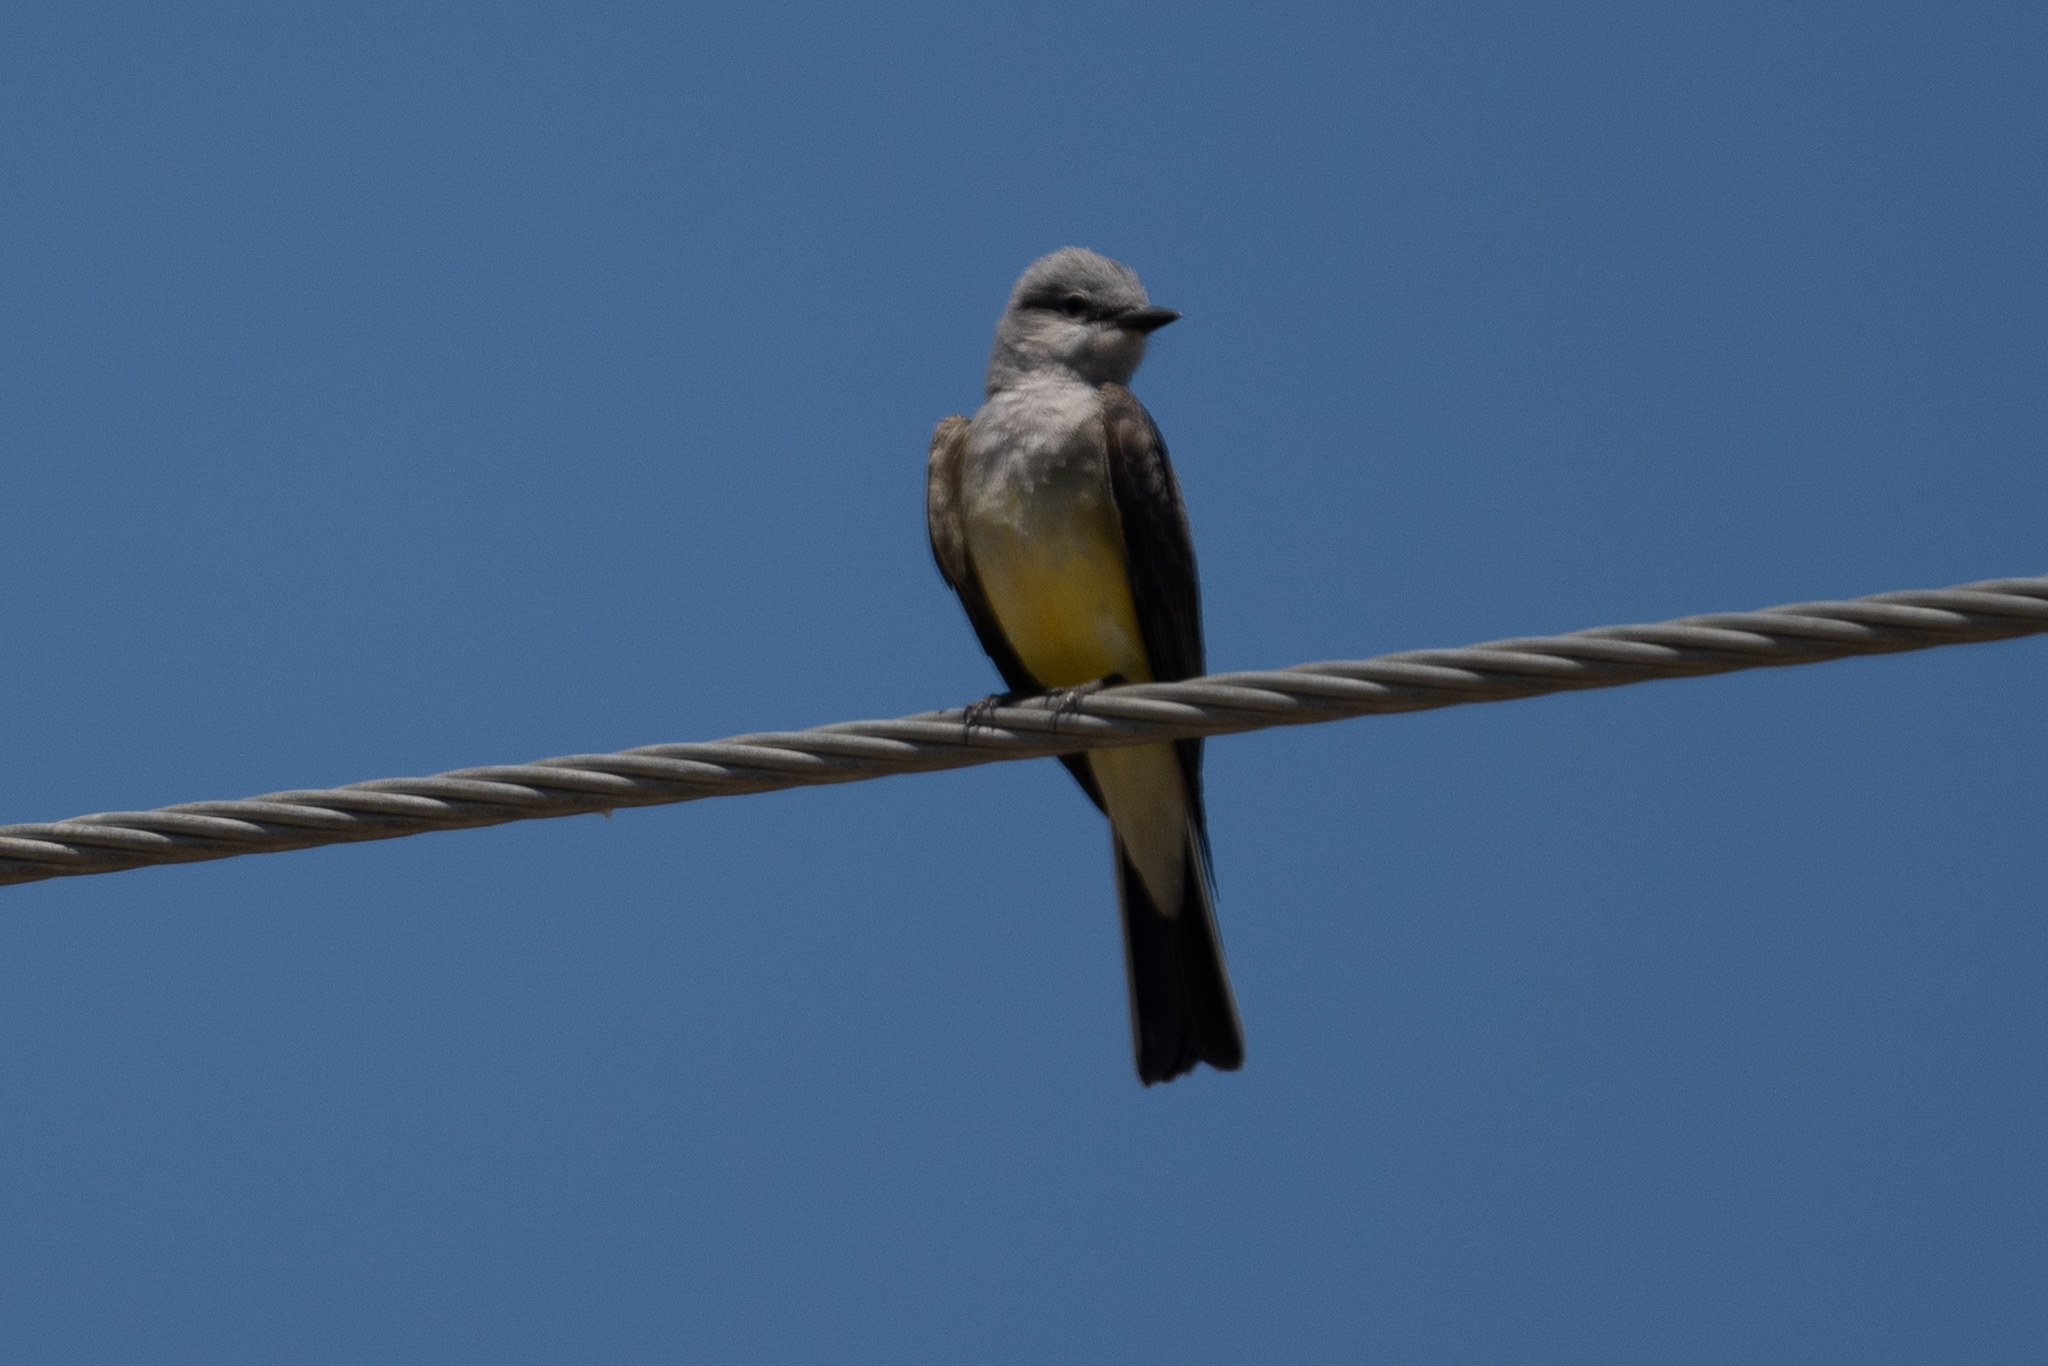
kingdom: Animalia
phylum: Chordata
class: Aves
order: Passeriformes
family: Tyrannidae
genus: Tyrannus
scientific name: Tyrannus verticalis
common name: Western kingbird
